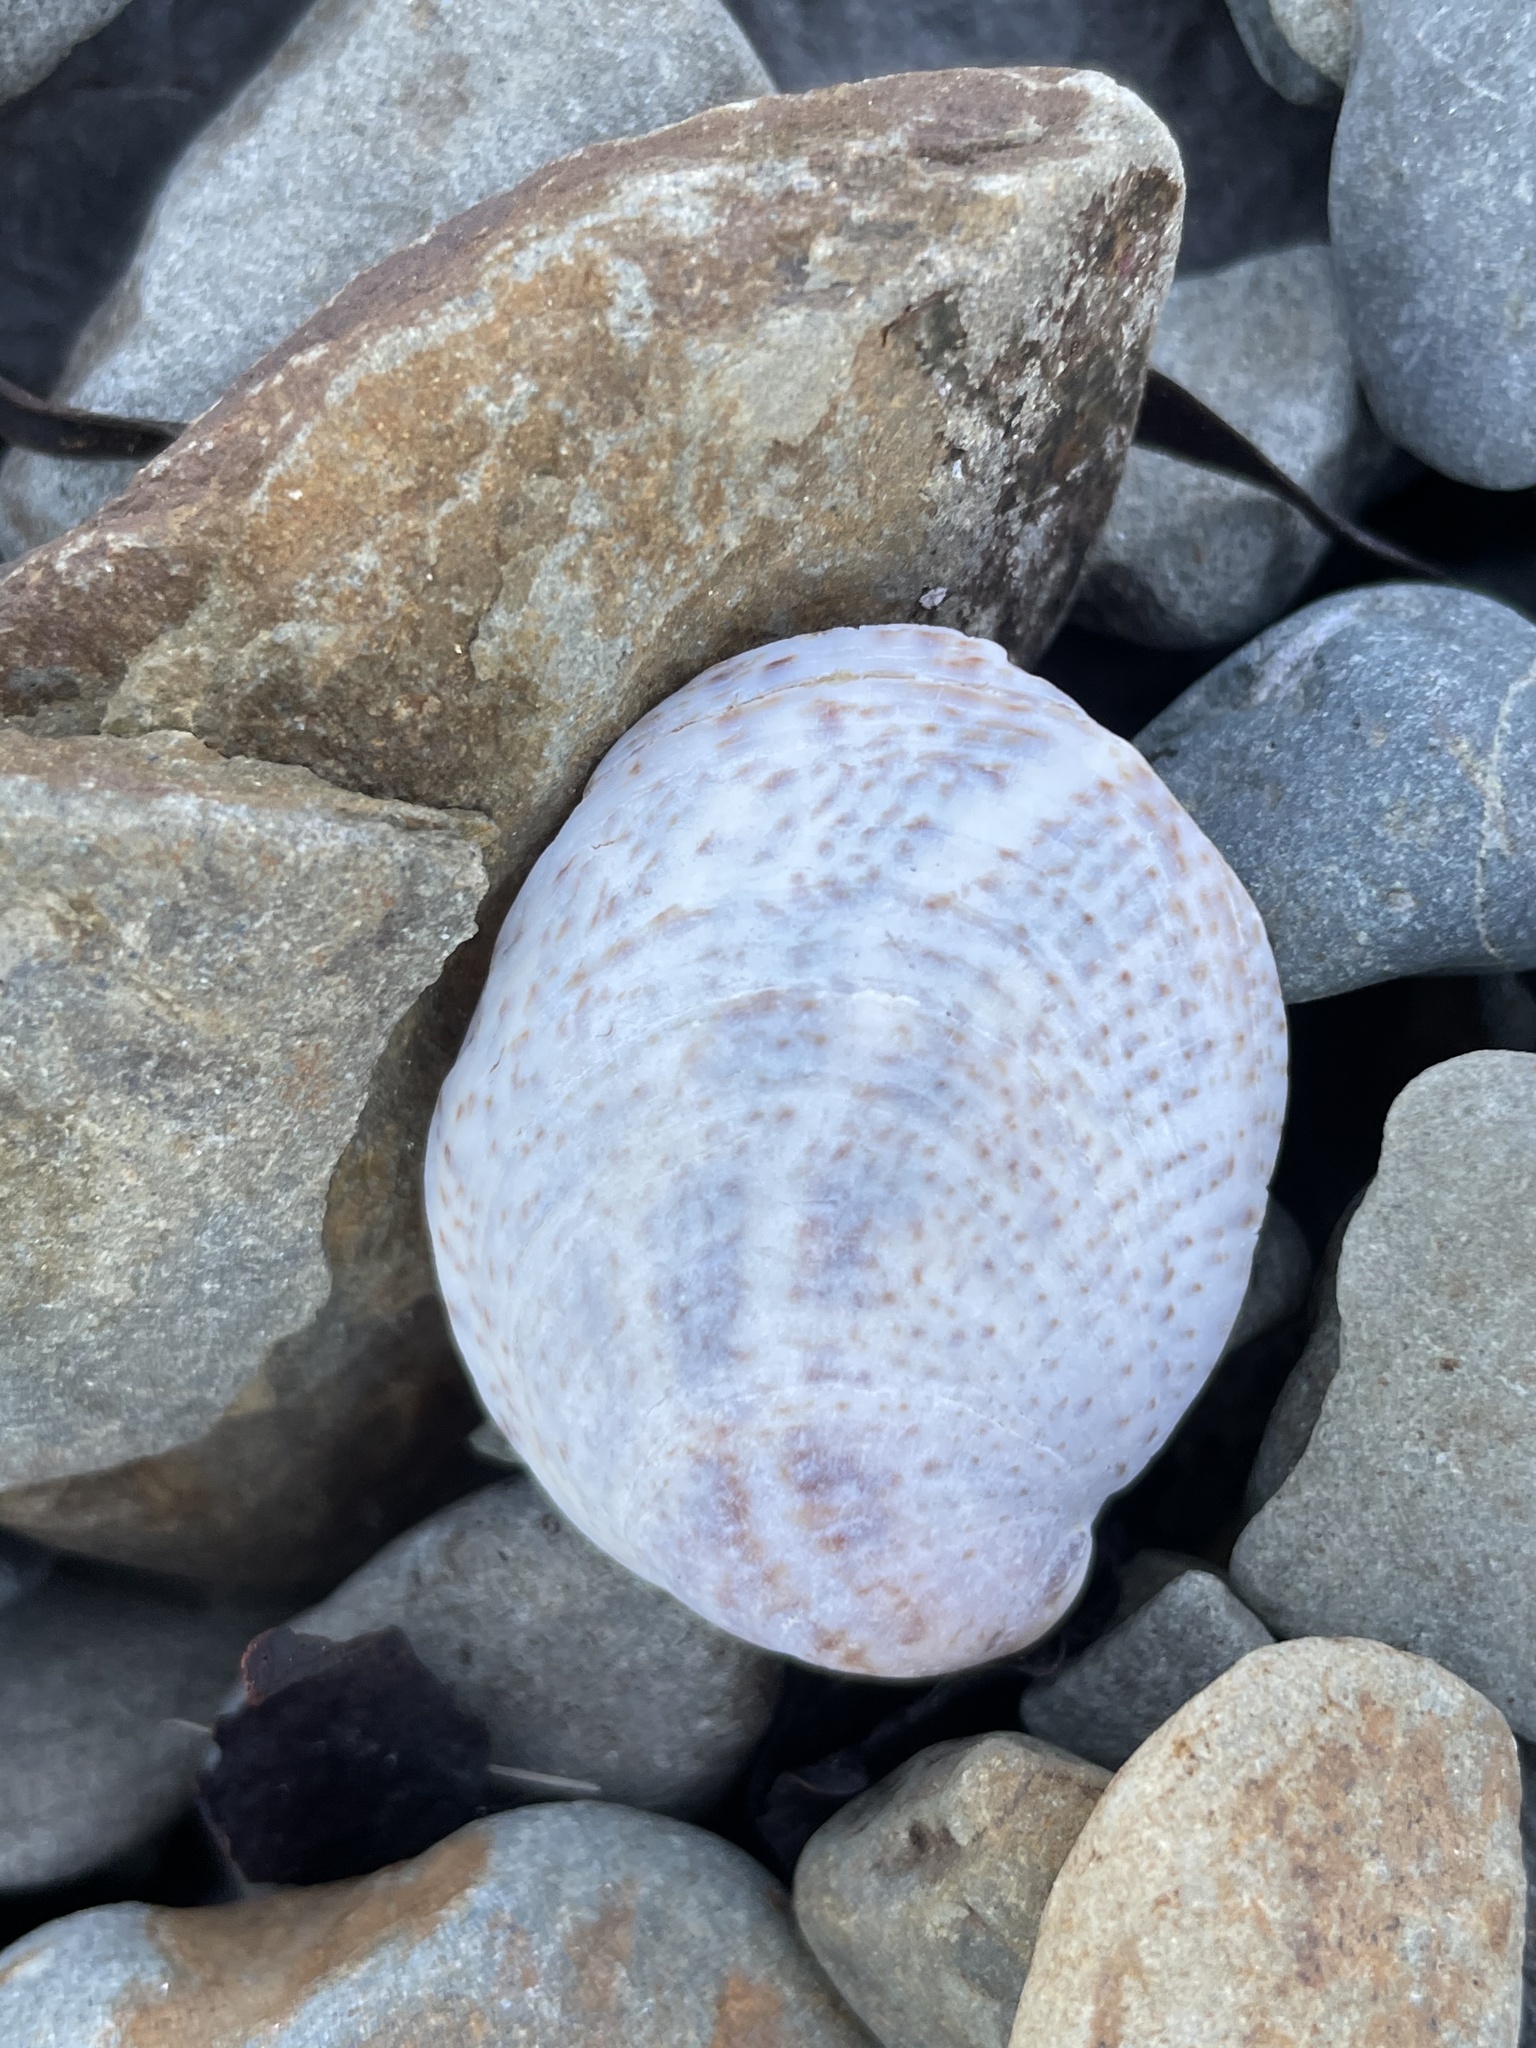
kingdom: Animalia
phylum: Mollusca
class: Gastropoda
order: Littorinimorpha
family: Calyptraeidae
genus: Crepidula
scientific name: Crepidula fornicata
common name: Slipper limpet
